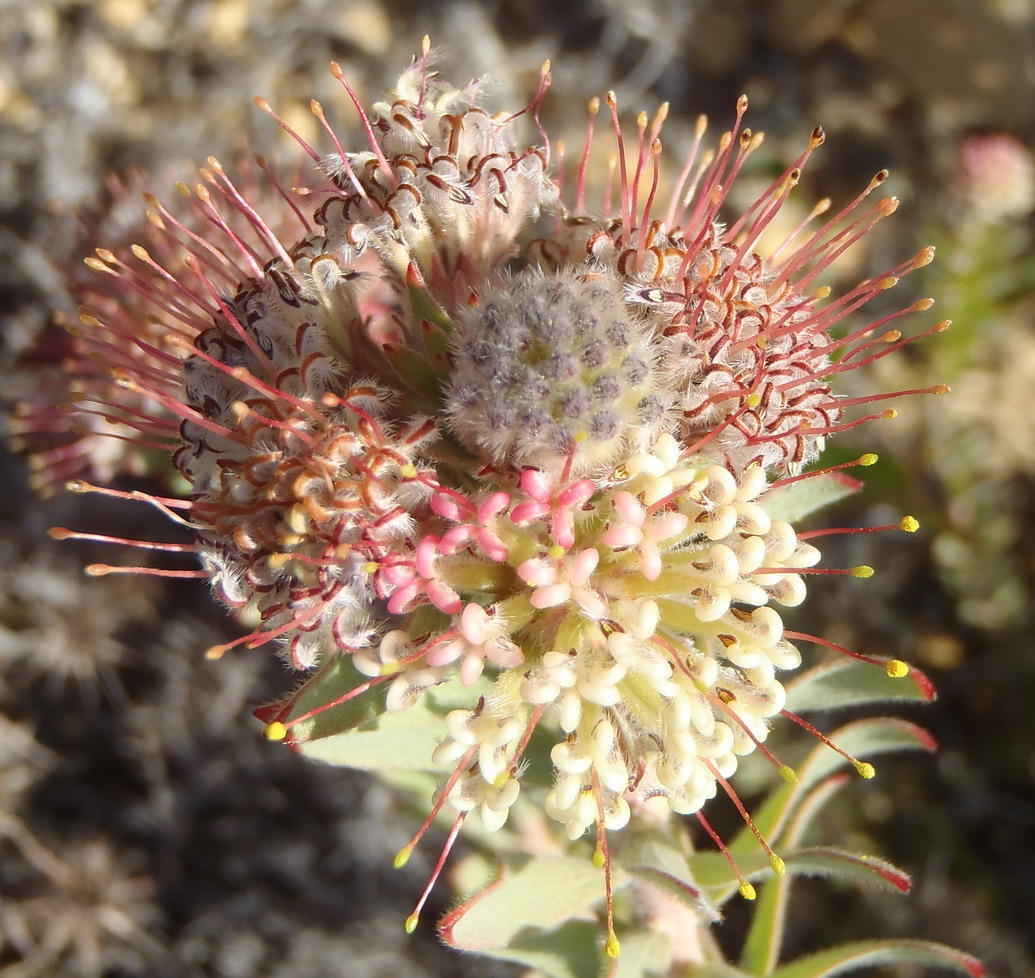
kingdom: Plantae
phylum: Tracheophyta
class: Magnoliopsida
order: Proteales
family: Proteaceae
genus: Leucospermum
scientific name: Leucospermum wittebergense
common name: Swartberg pincushion
